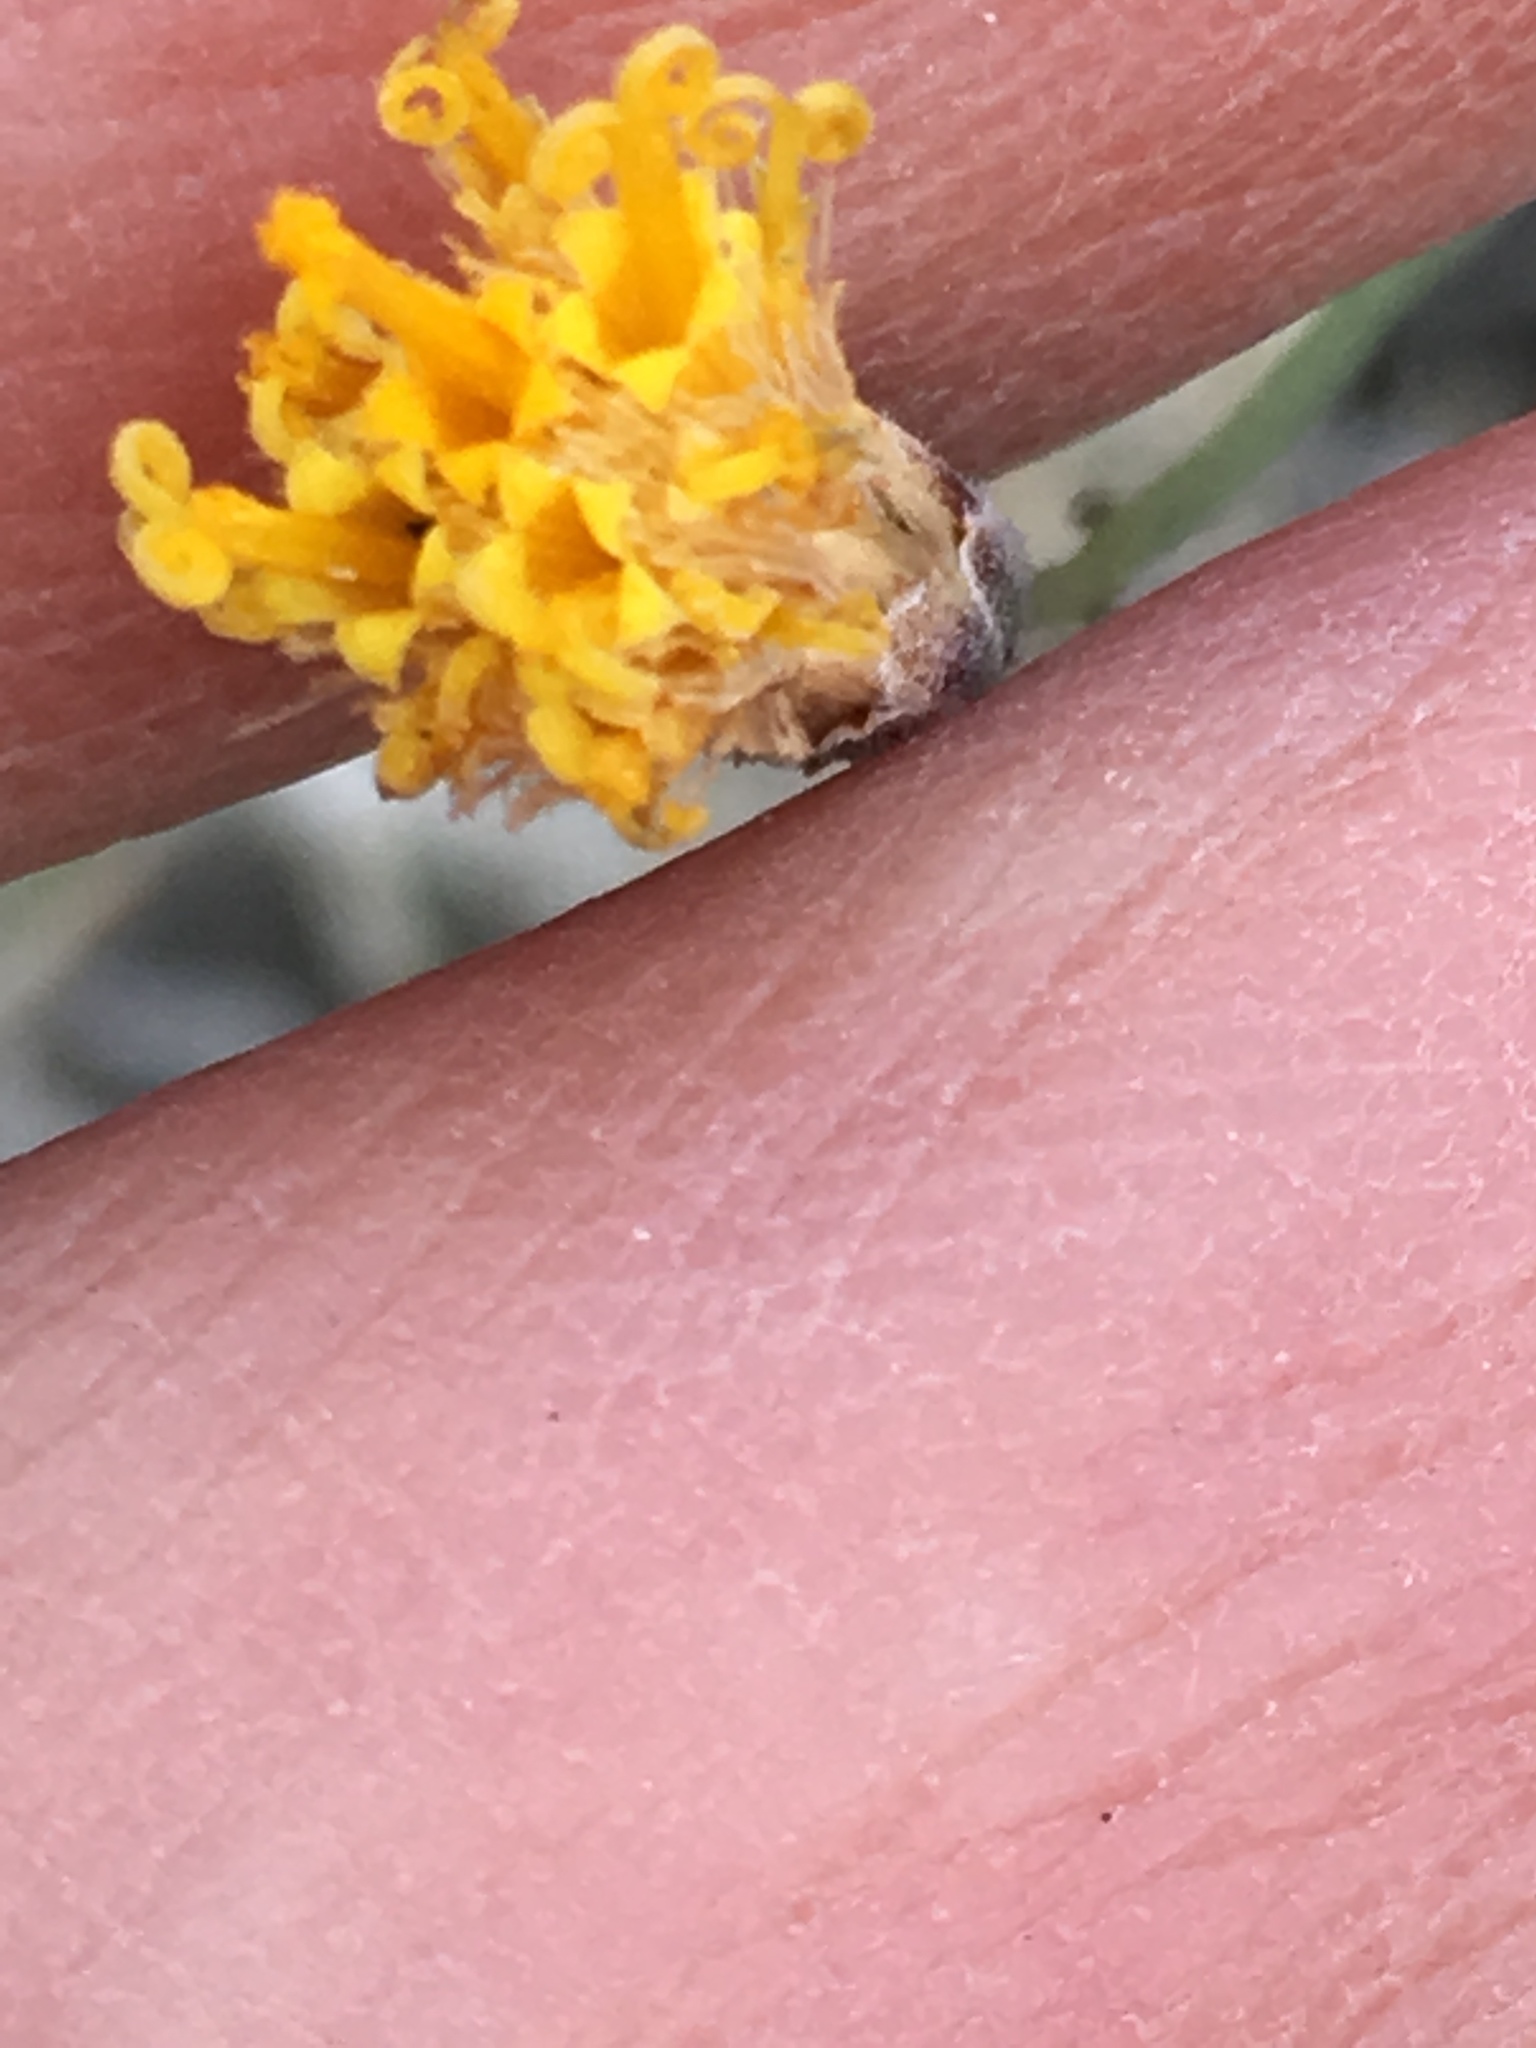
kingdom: Plantae
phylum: Tracheophyta
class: Magnoliopsida
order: Asterales
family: Asteraceae
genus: Bebbia
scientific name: Bebbia juncea
